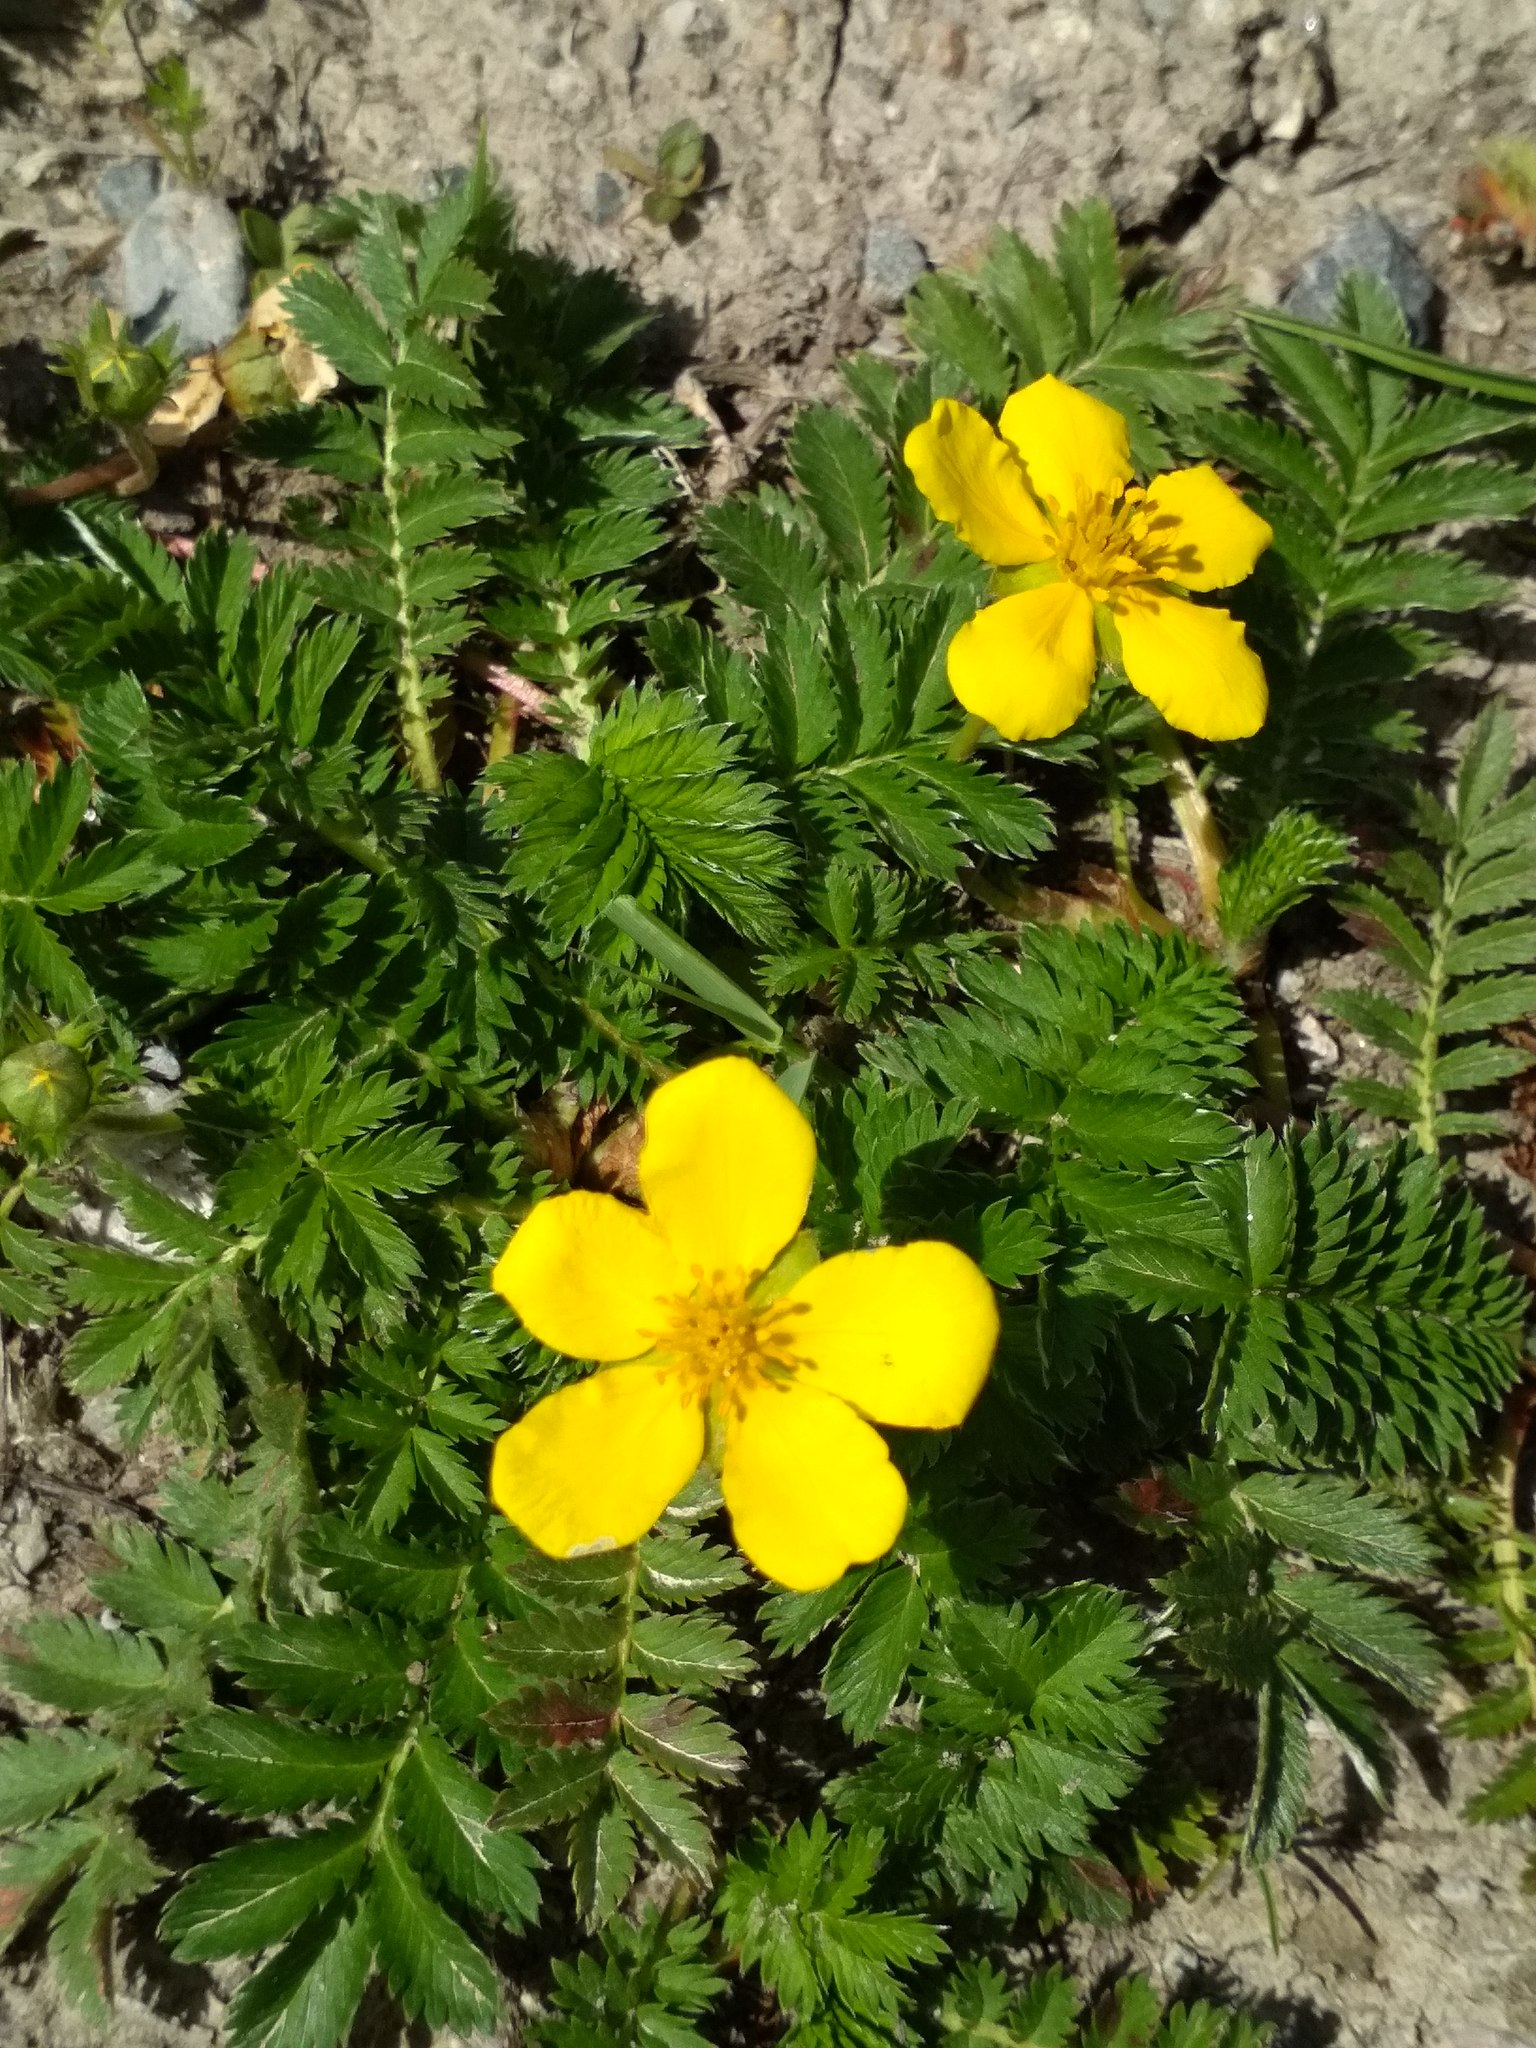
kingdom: Plantae
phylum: Tracheophyta
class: Magnoliopsida
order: Rosales
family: Rosaceae
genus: Argentina
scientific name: Argentina anserina
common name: Common silverweed
